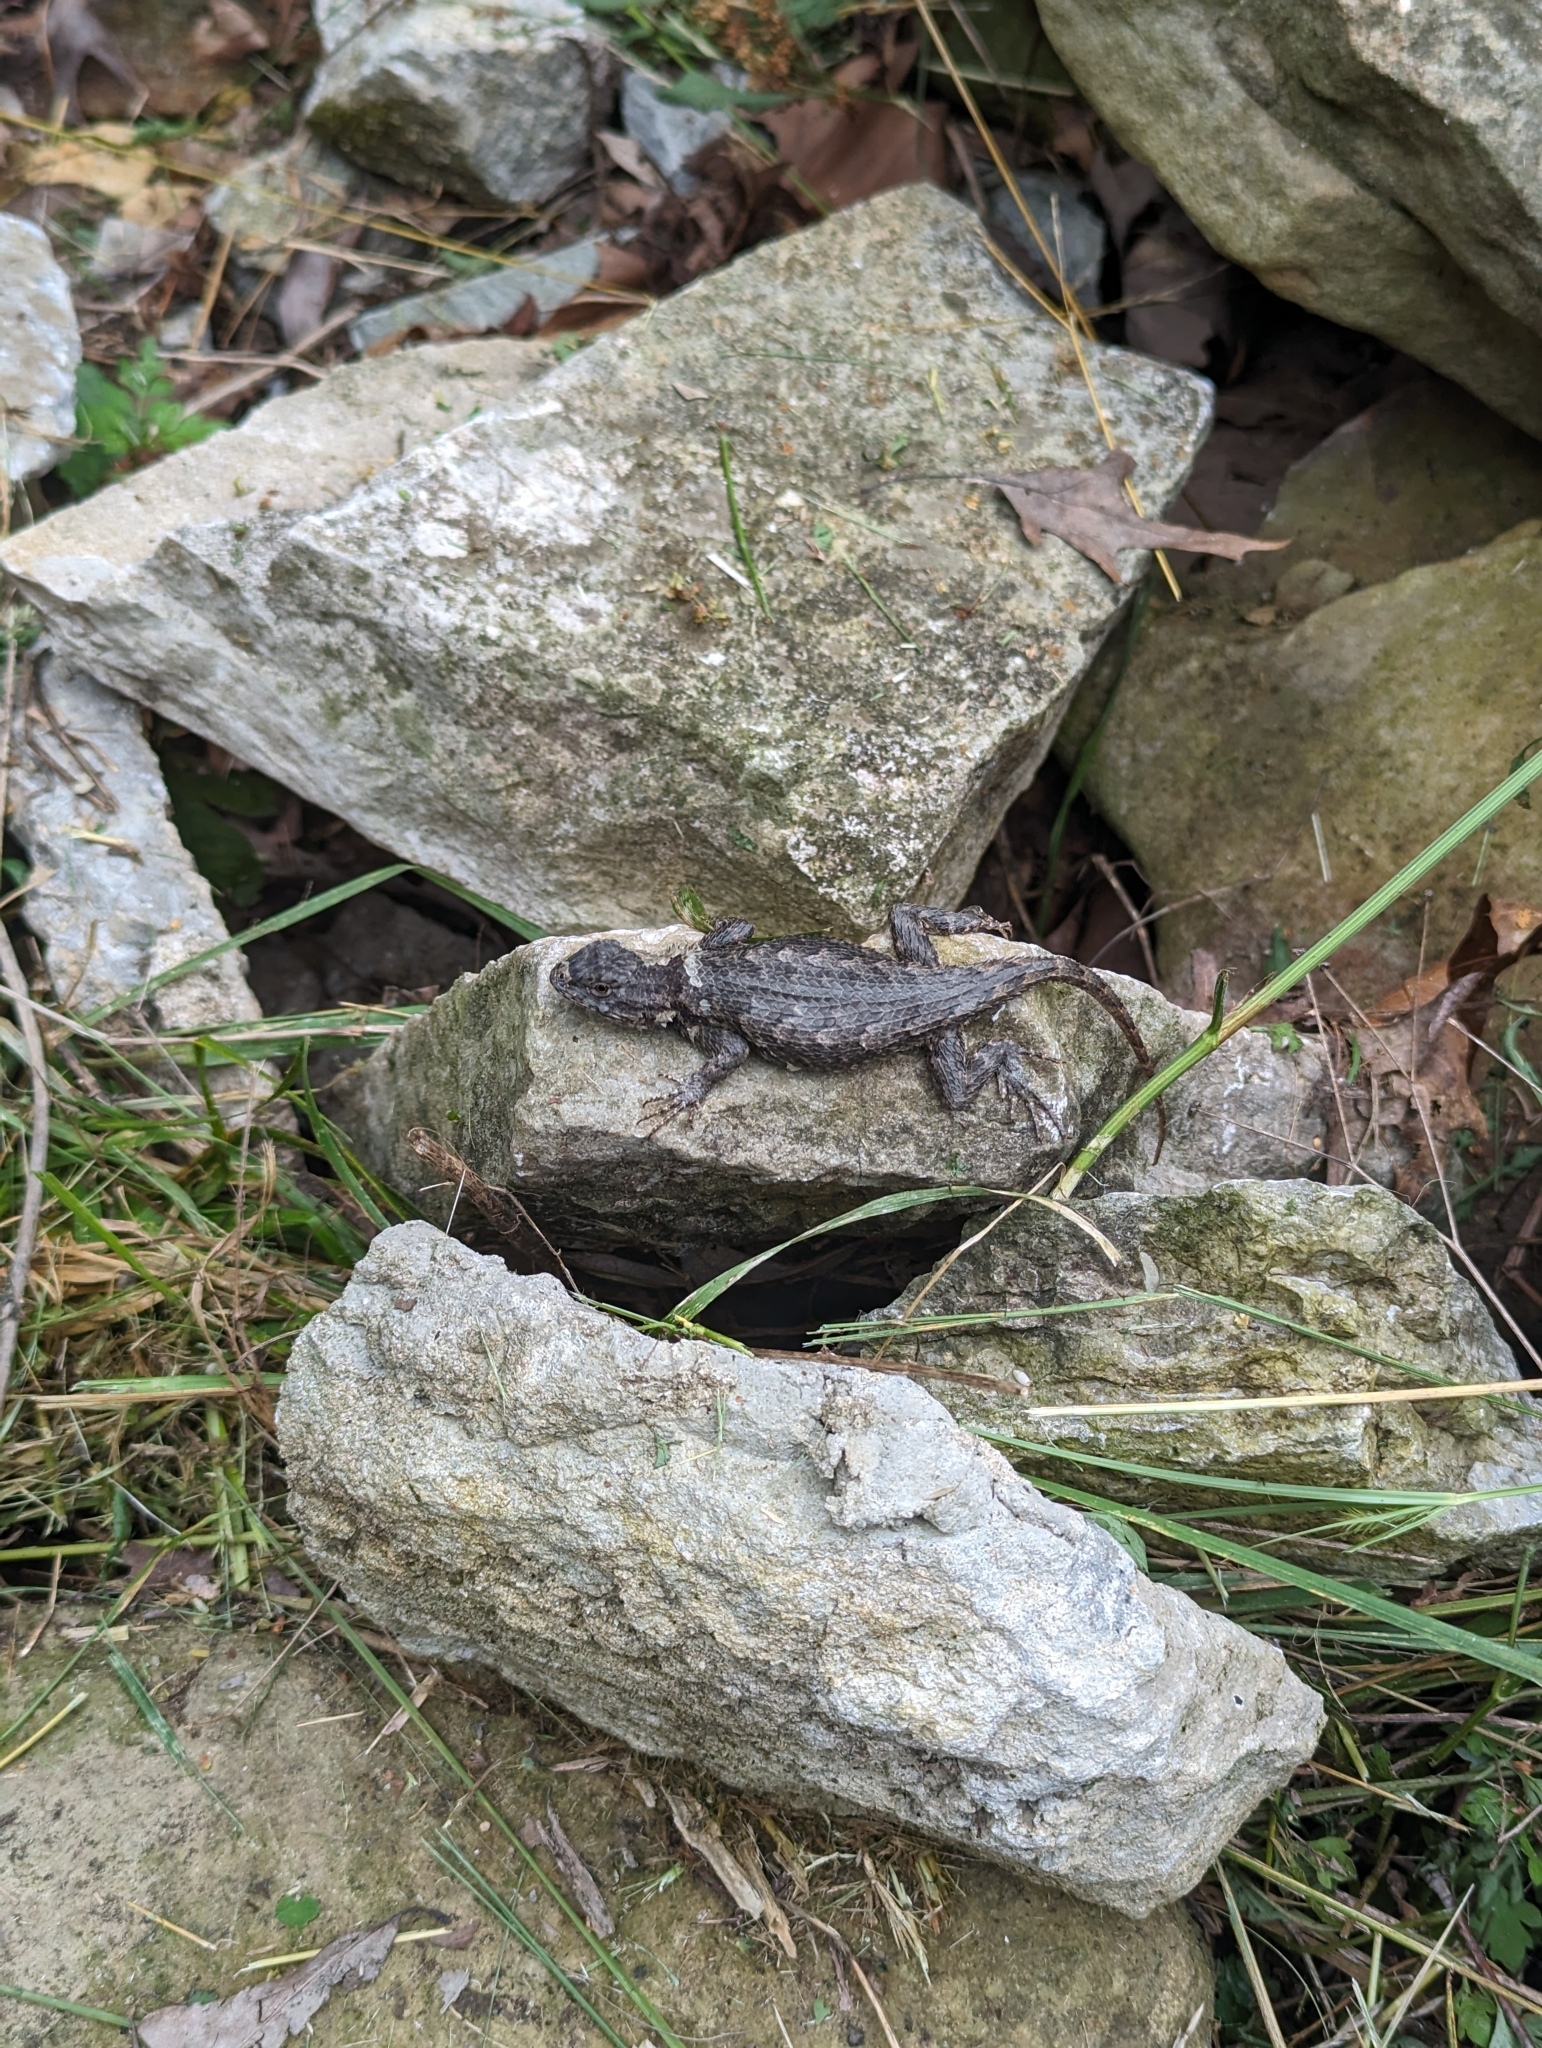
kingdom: Animalia
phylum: Chordata
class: Squamata
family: Phrynosomatidae
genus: Sceloporus
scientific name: Sceloporus undulatus
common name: Eastern fence lizard
